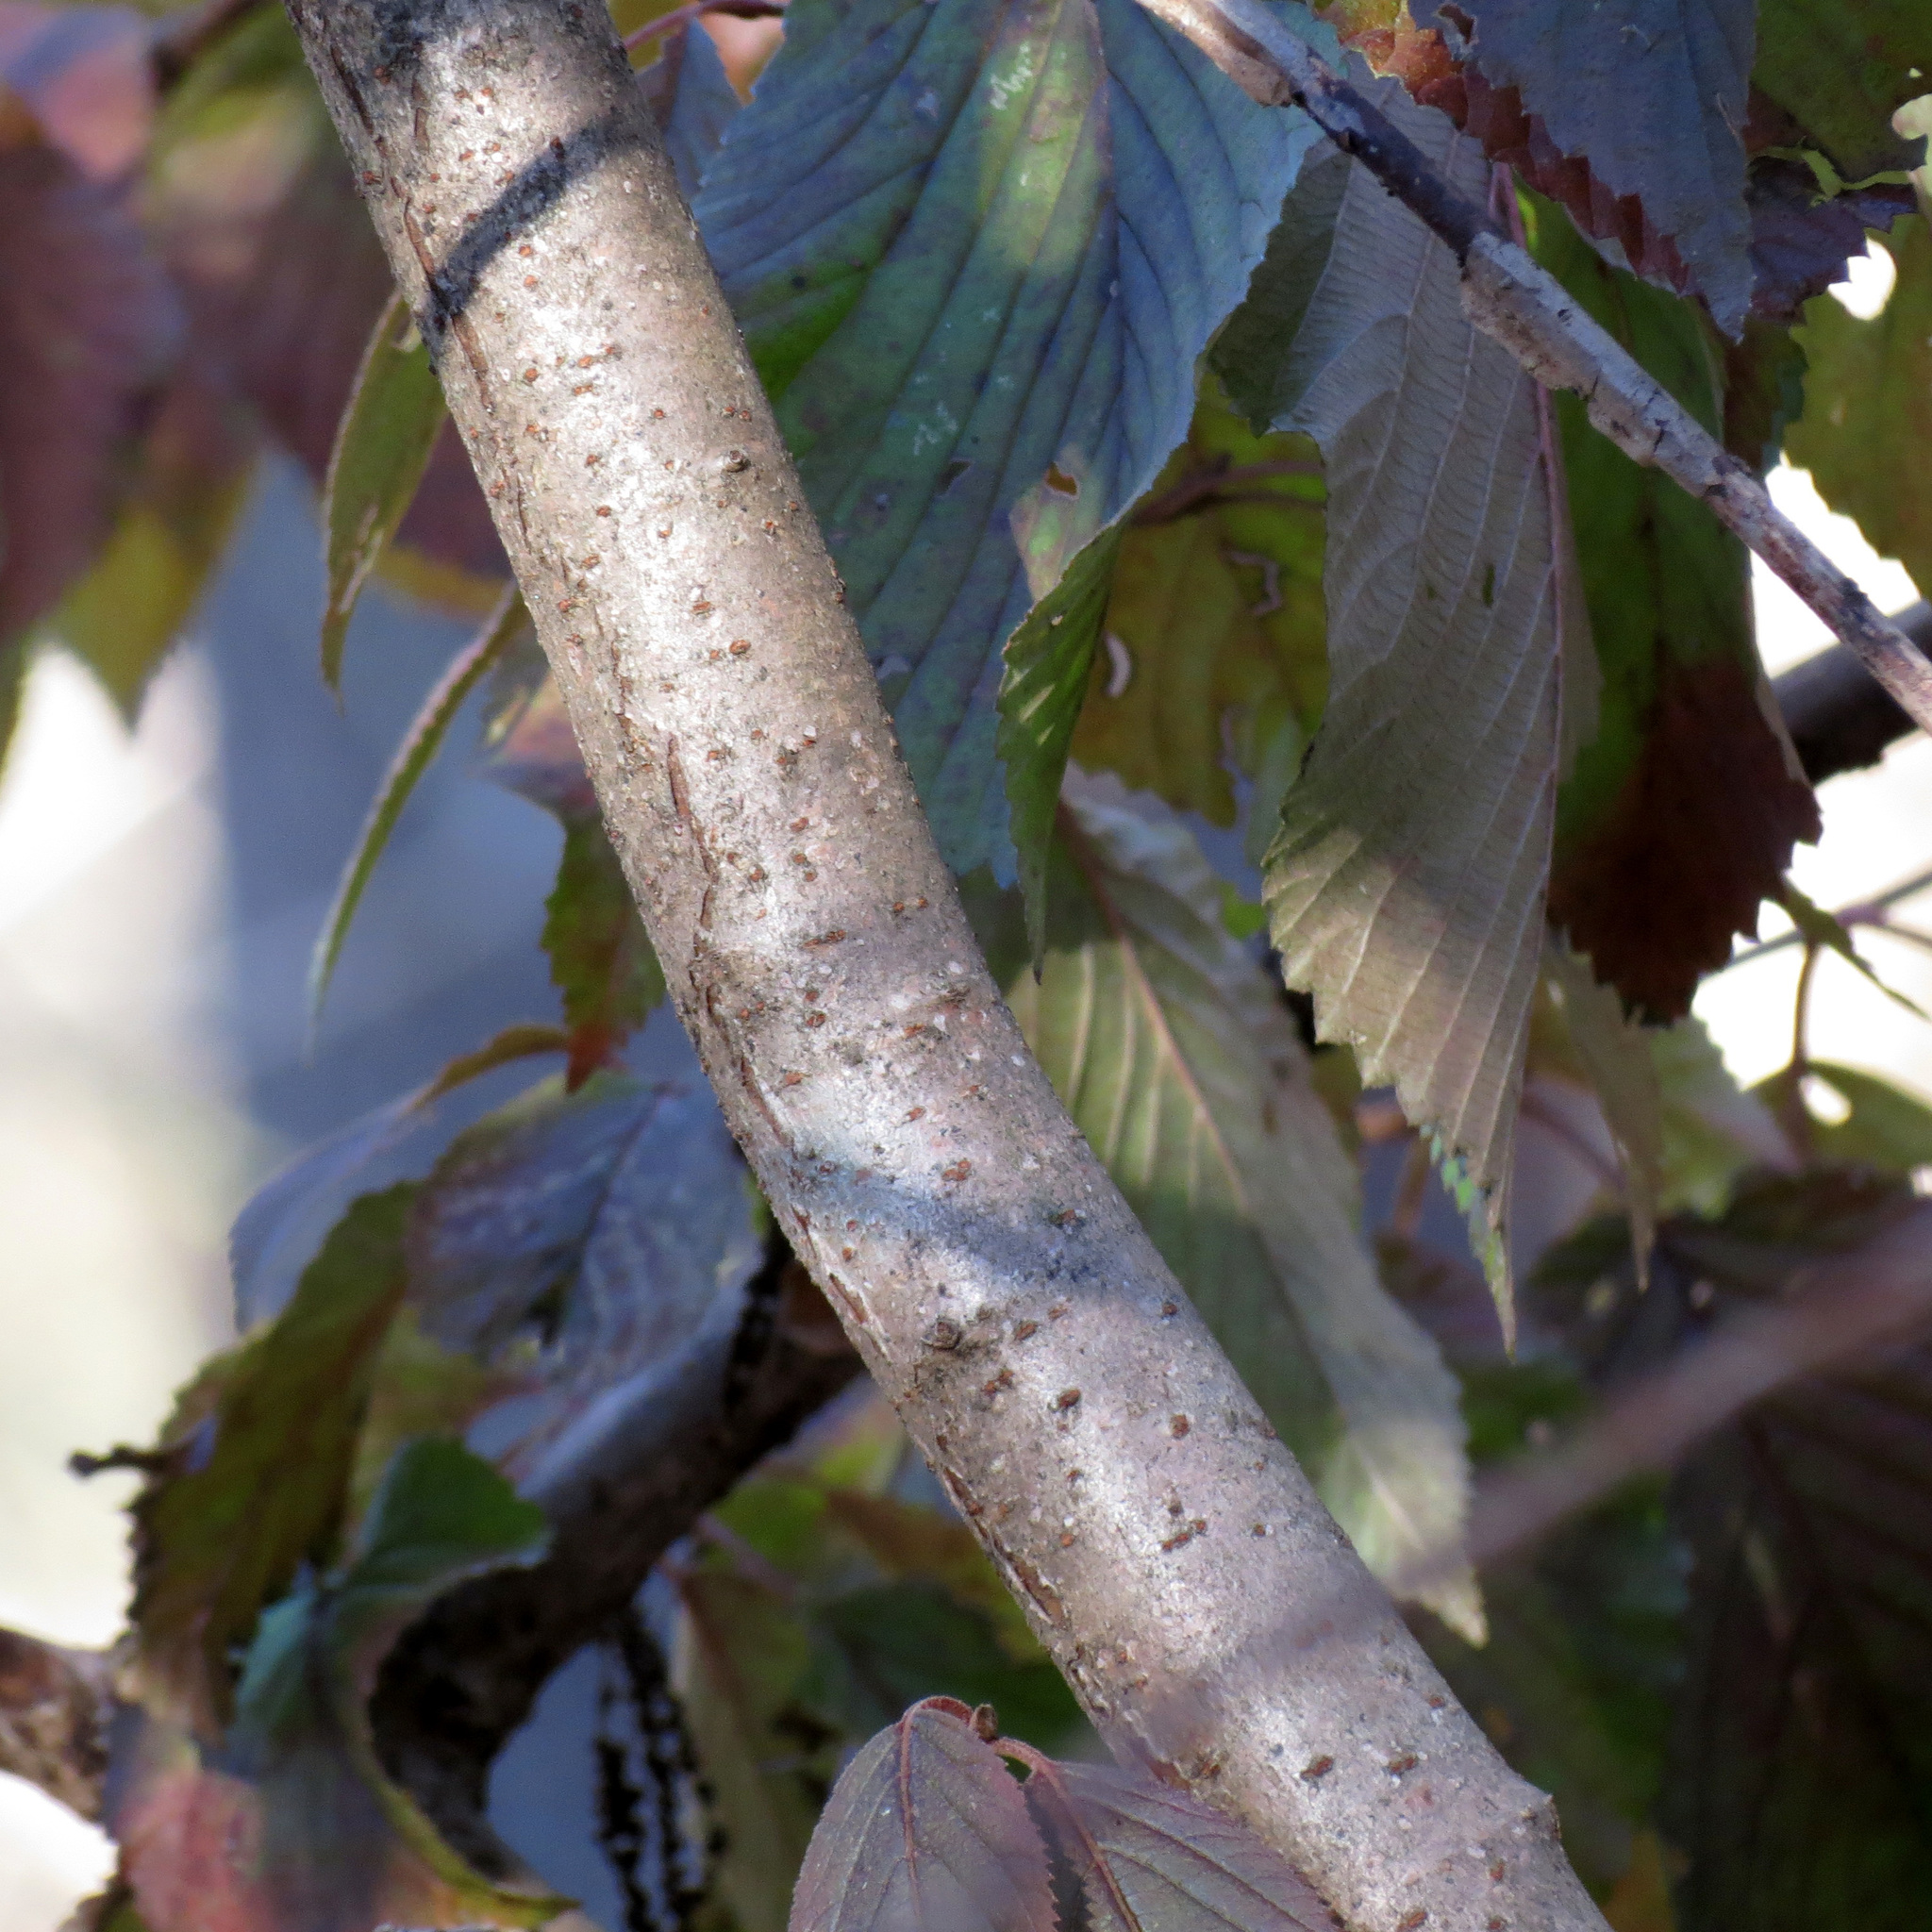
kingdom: Plantae
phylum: Tracheophyta
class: Magnoliopsida
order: Dipsacales
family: Viburnaceae
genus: Viburnum
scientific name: Viburnum plicatum
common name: Japanese snowball
